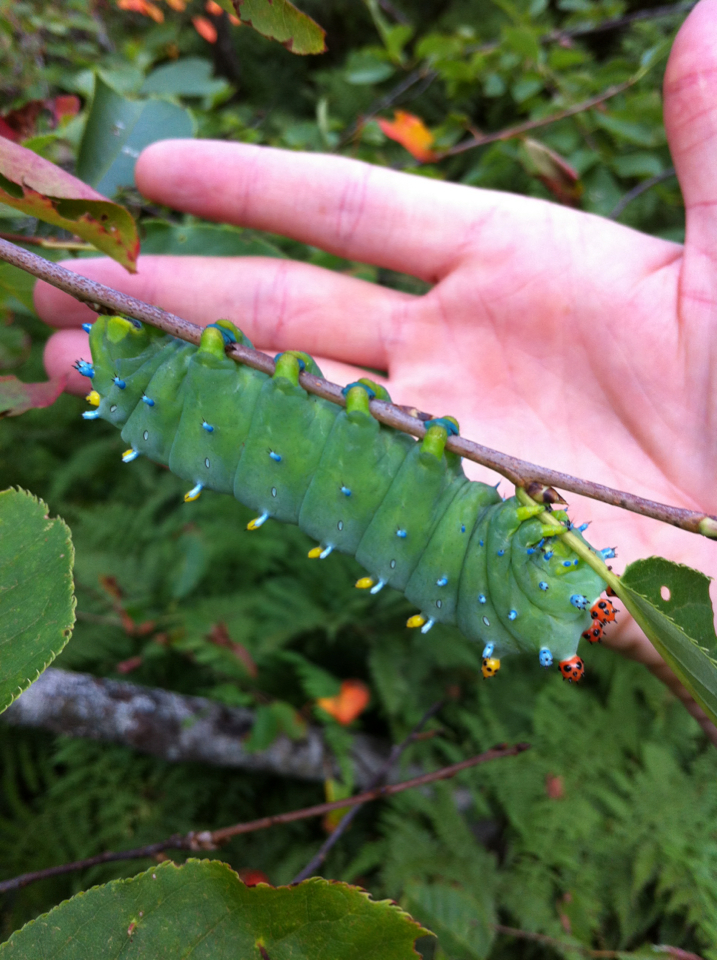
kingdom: Animalia
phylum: Arthropoda
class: Insecta
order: Lepidoptera
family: Saturniidae
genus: Hyalophora
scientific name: Hyalophora cecropia
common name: Cecropia silkmoth
